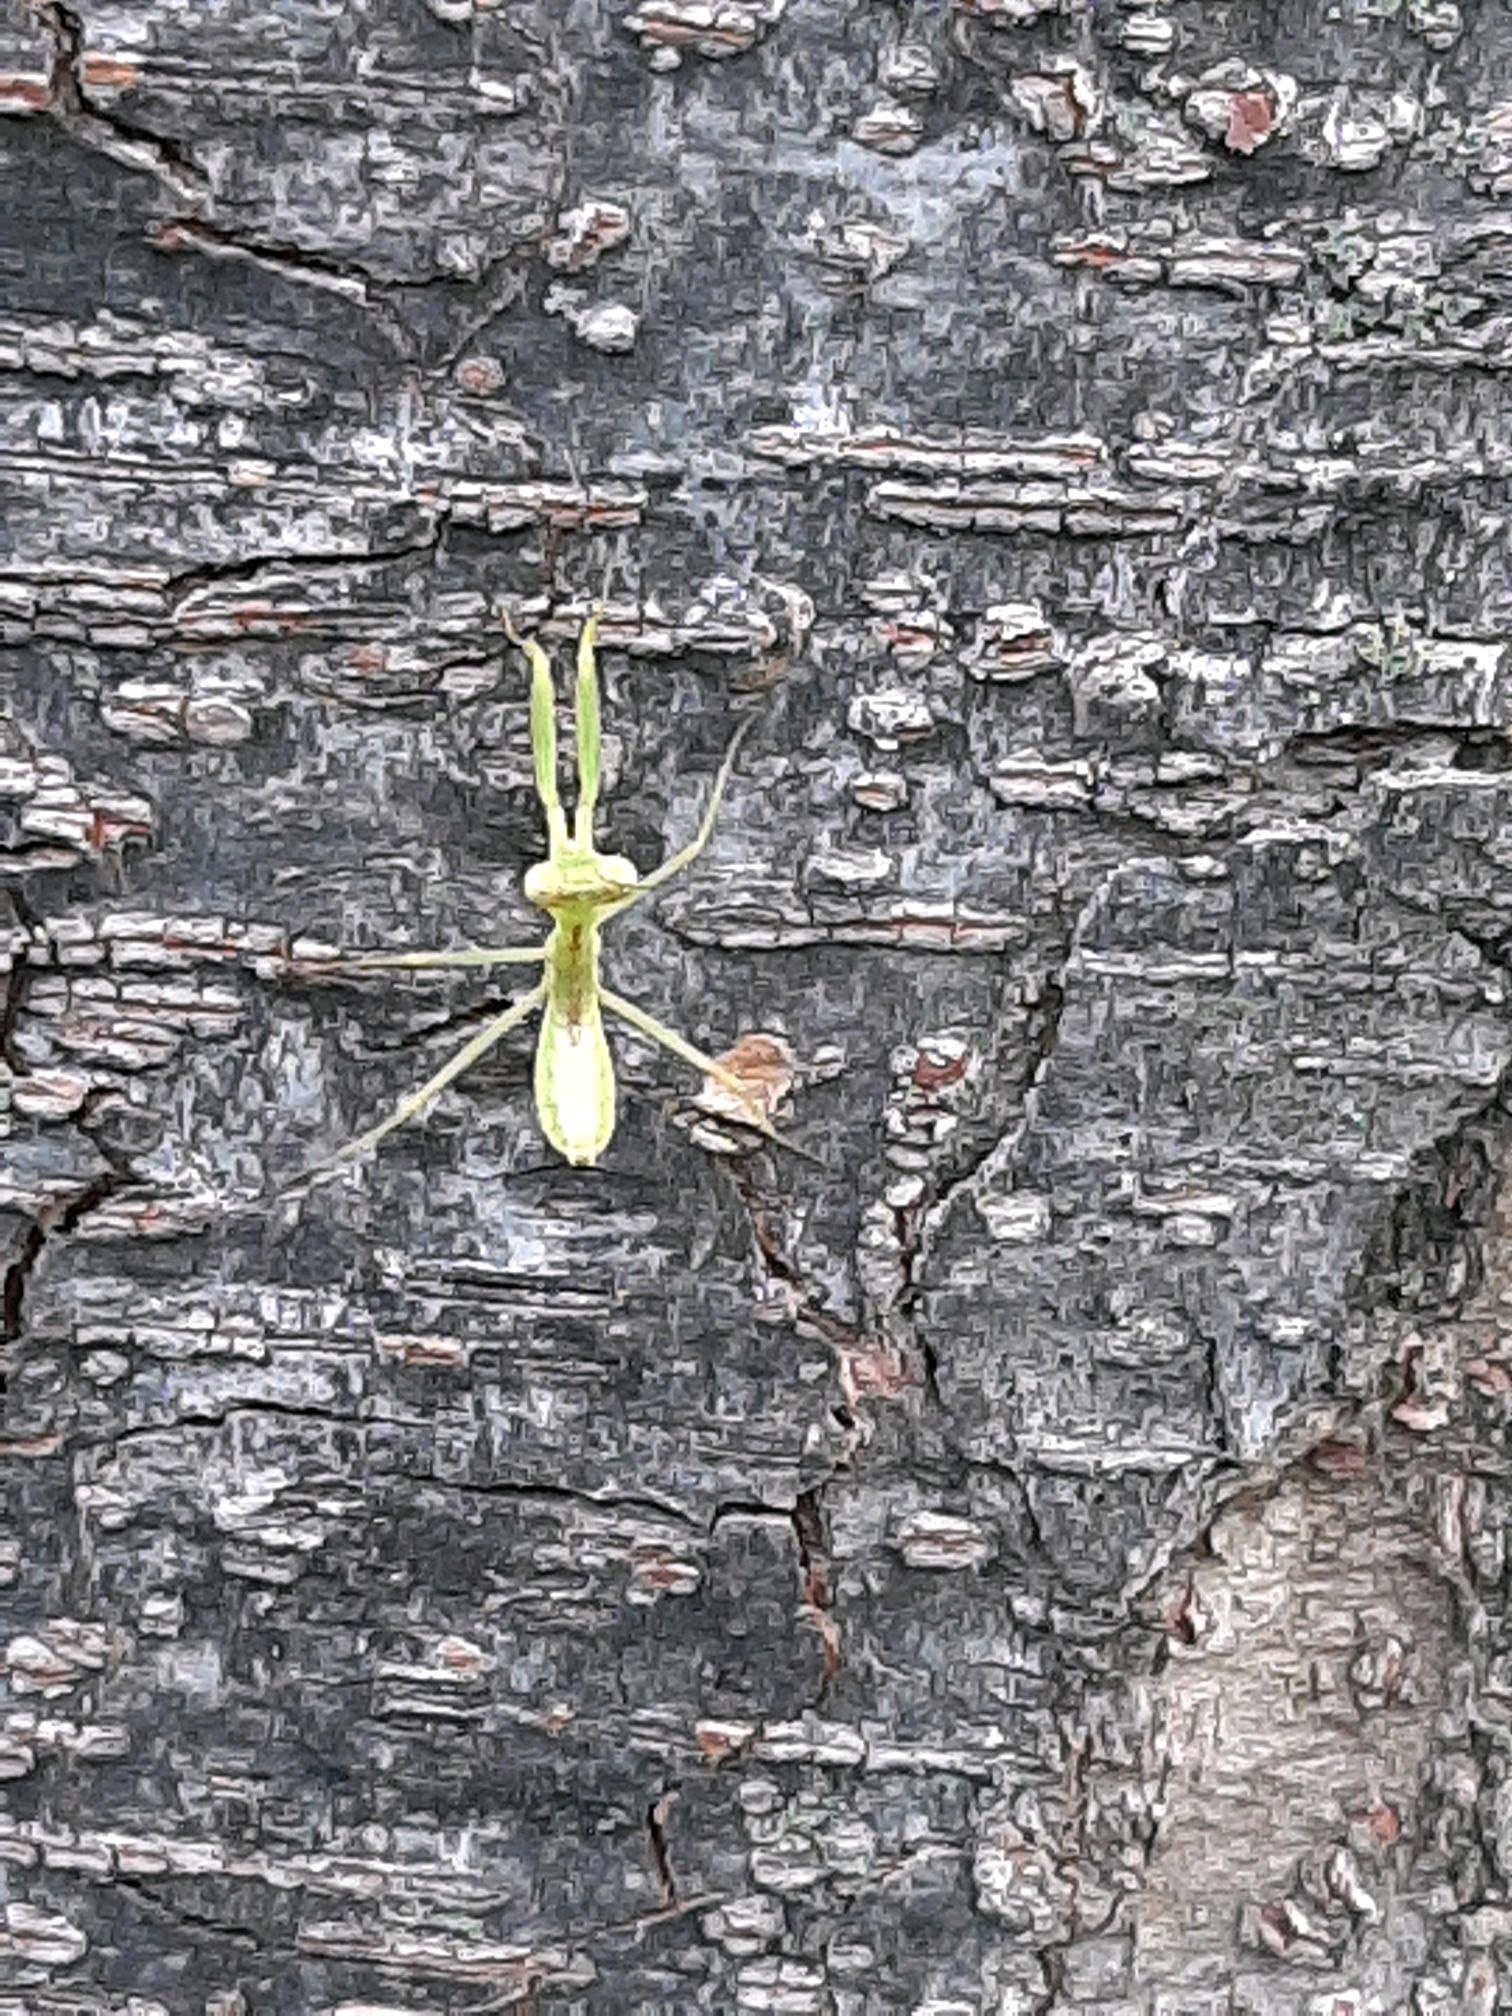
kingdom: Animalia
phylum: Arthropoda
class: Insecta
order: Mantodea
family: Mantidae
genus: Hierodula
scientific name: Hierodula patellifera
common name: Asian mantis
